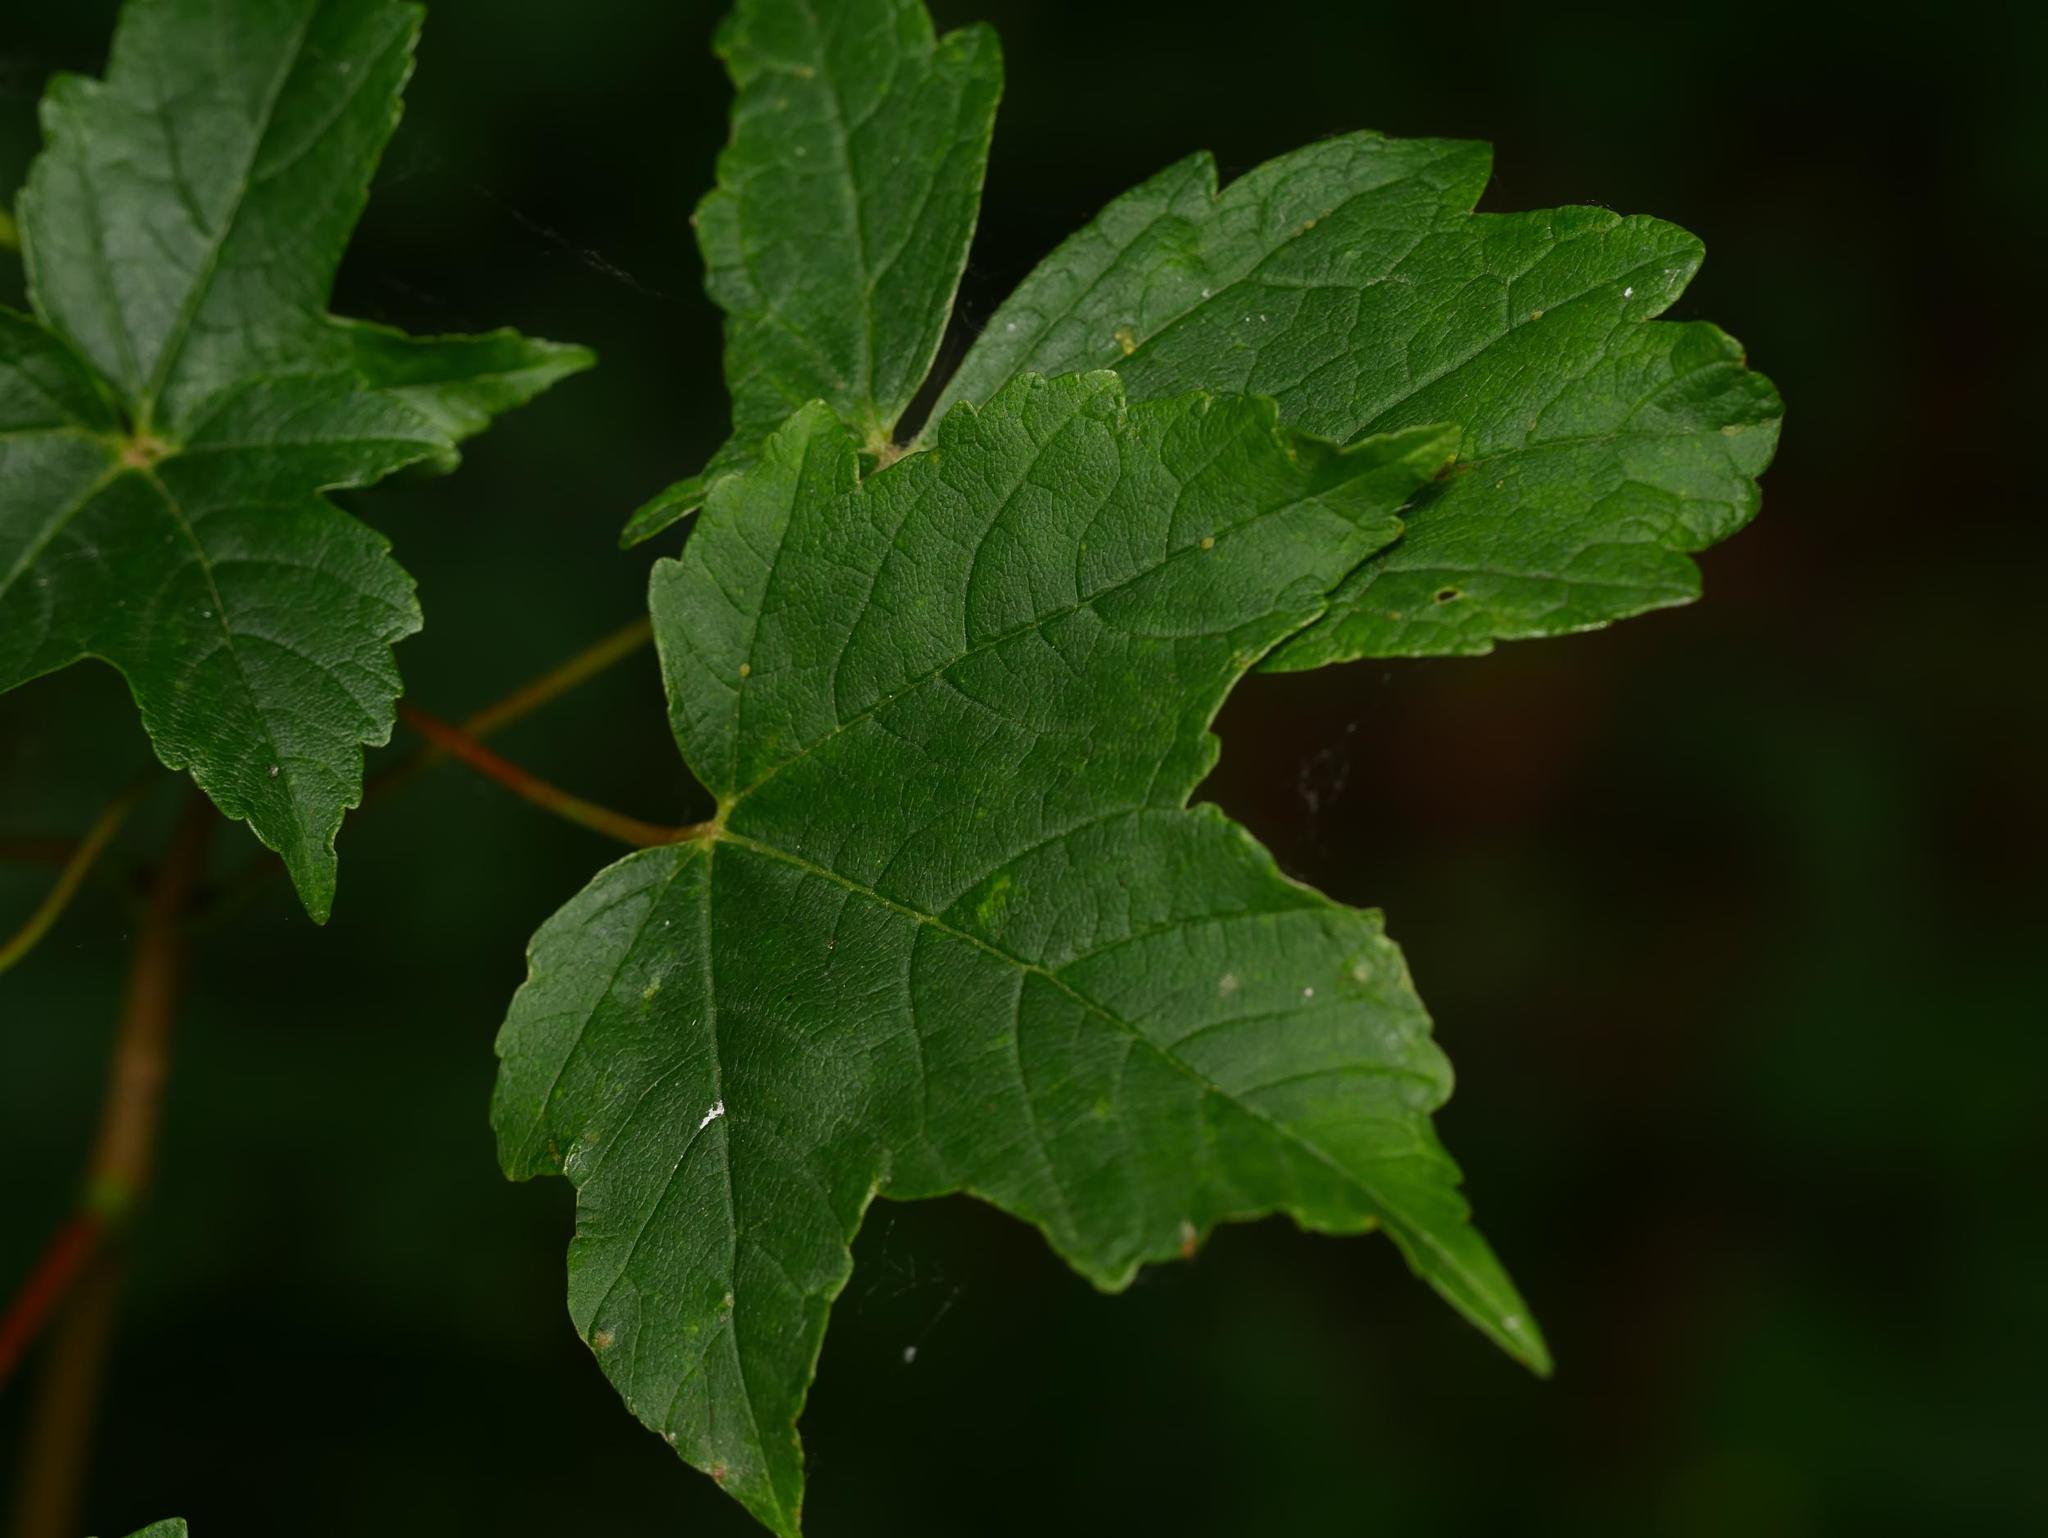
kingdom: Plantae
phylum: Tracheophyta
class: Magnoliopsida
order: Sapindales
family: Sapindaceae
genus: Acer
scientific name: Acer pseudoplatanus
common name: Sycamore
